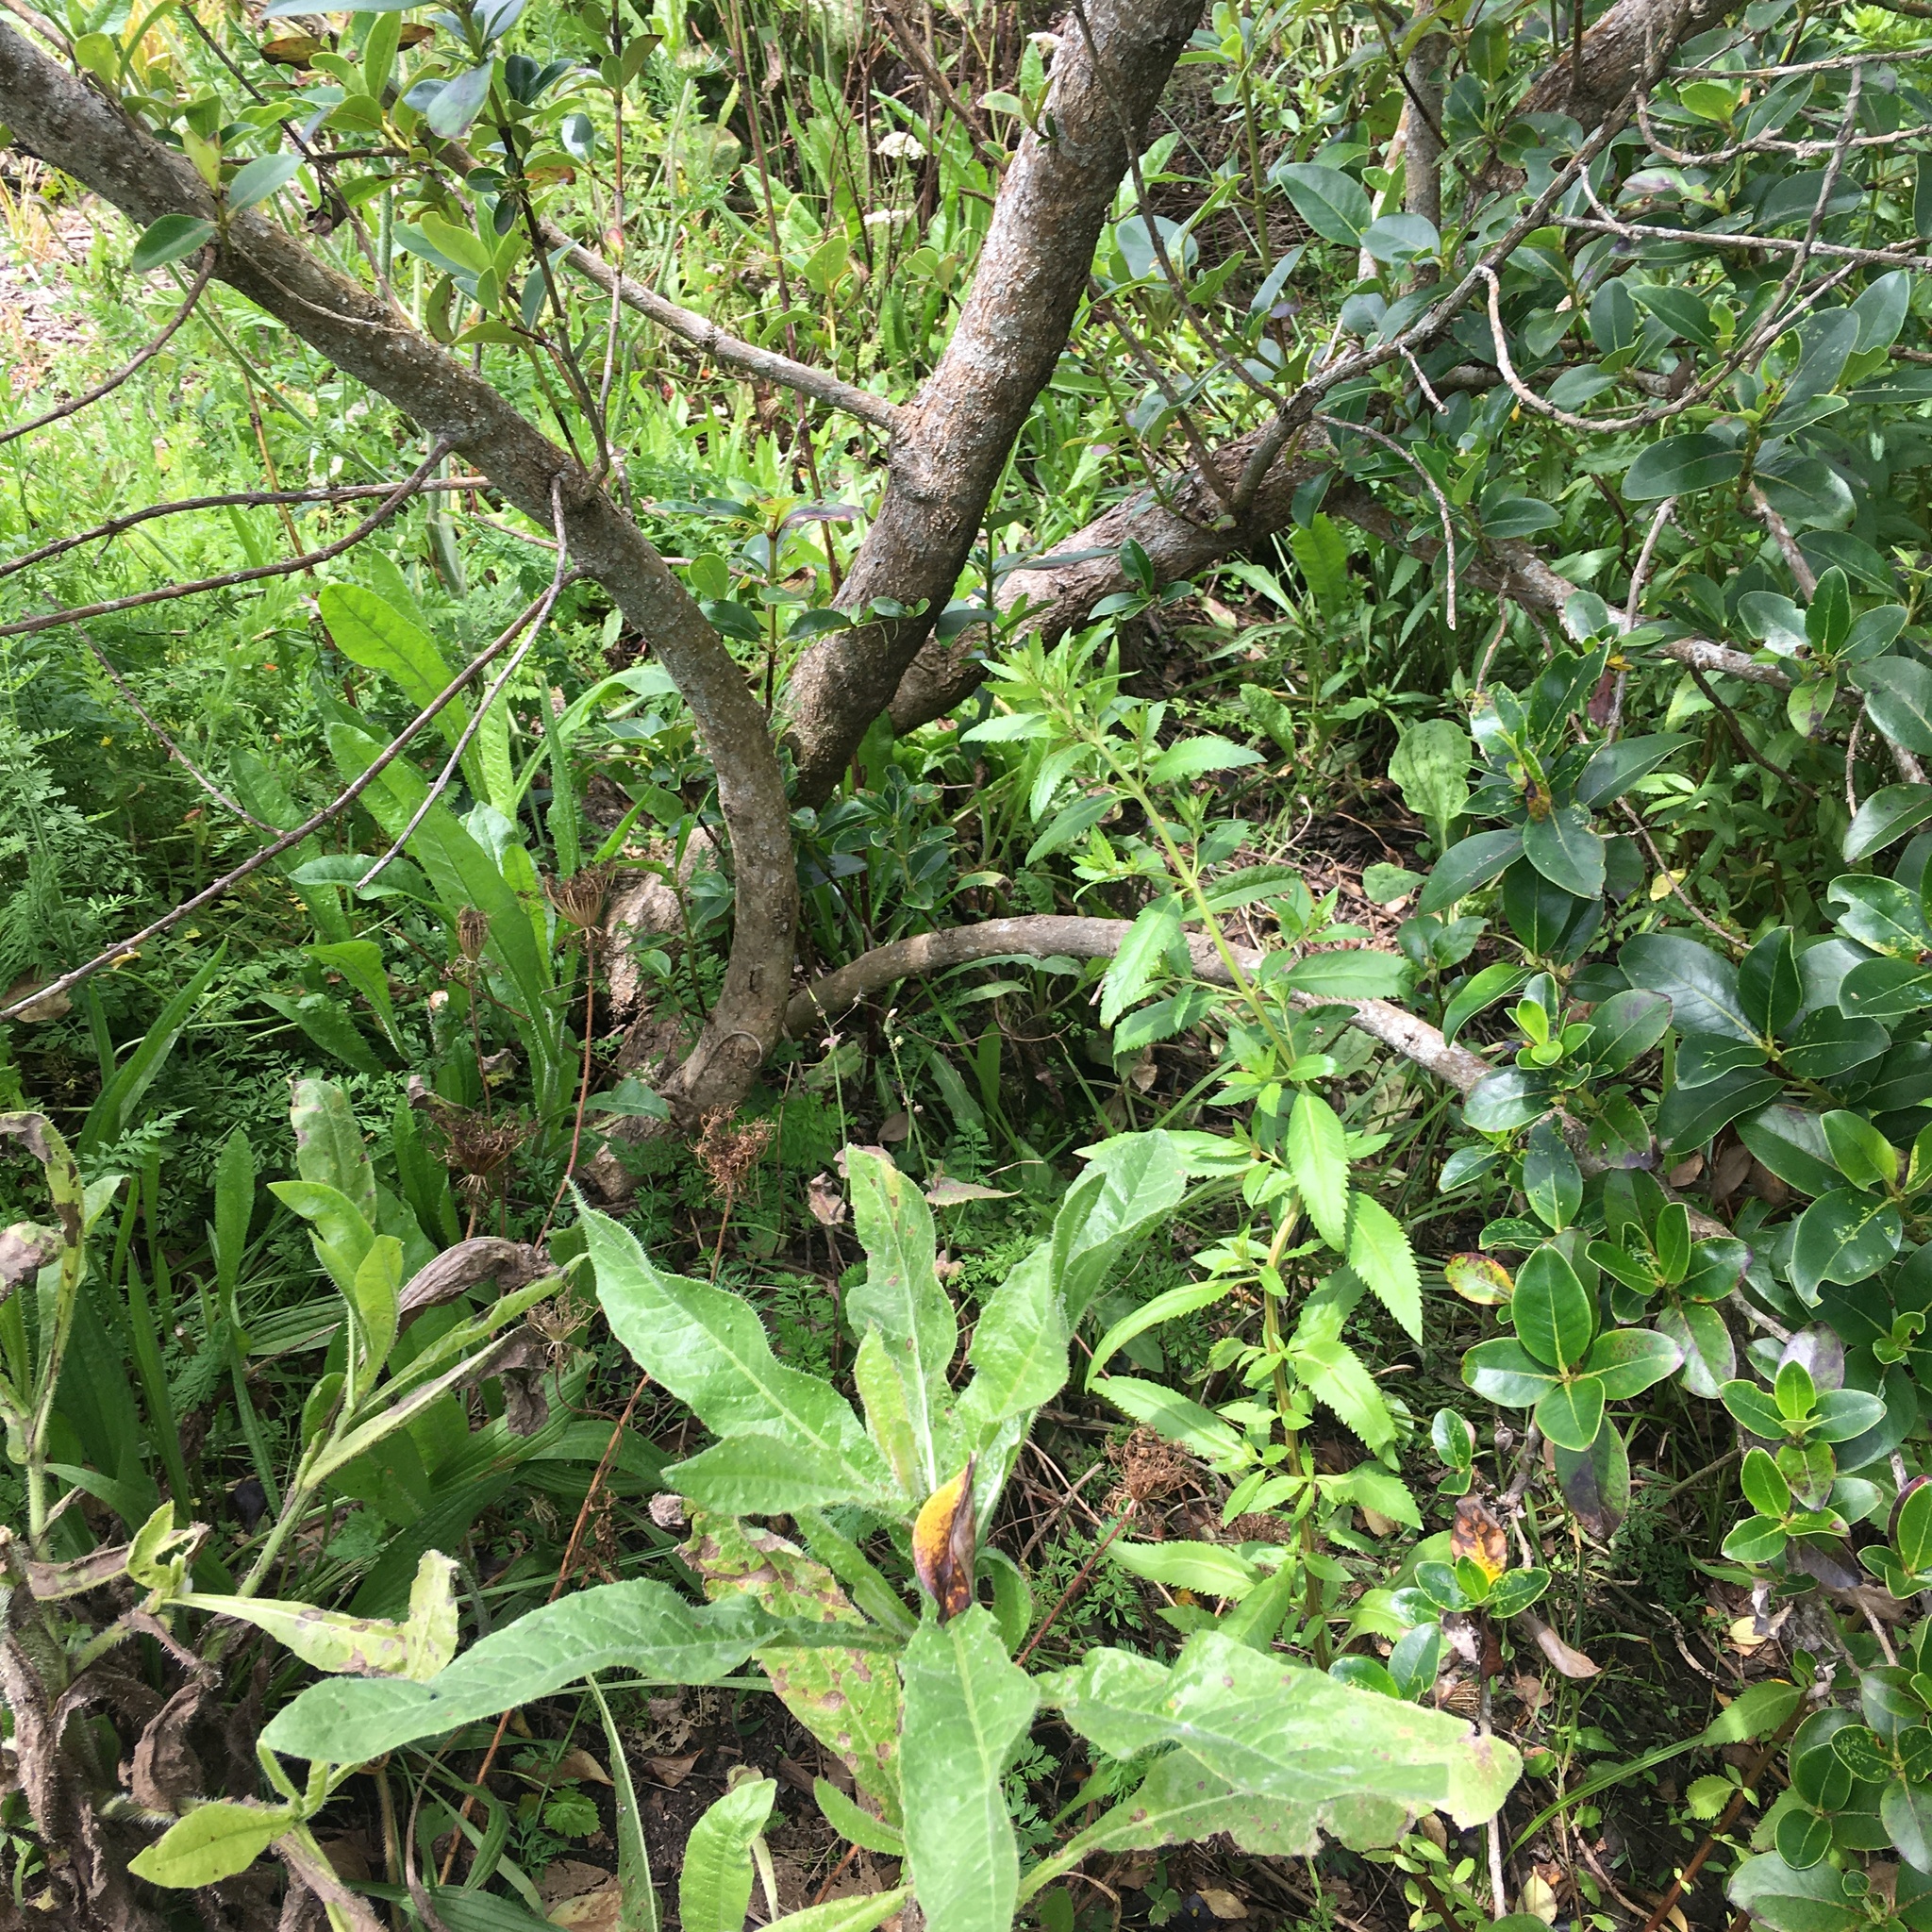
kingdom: Plantae
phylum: Tracheophyta
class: Magnoliopsida
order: Gentianales
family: Rubiaceae
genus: Coprosma
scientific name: Coprosma robusta
